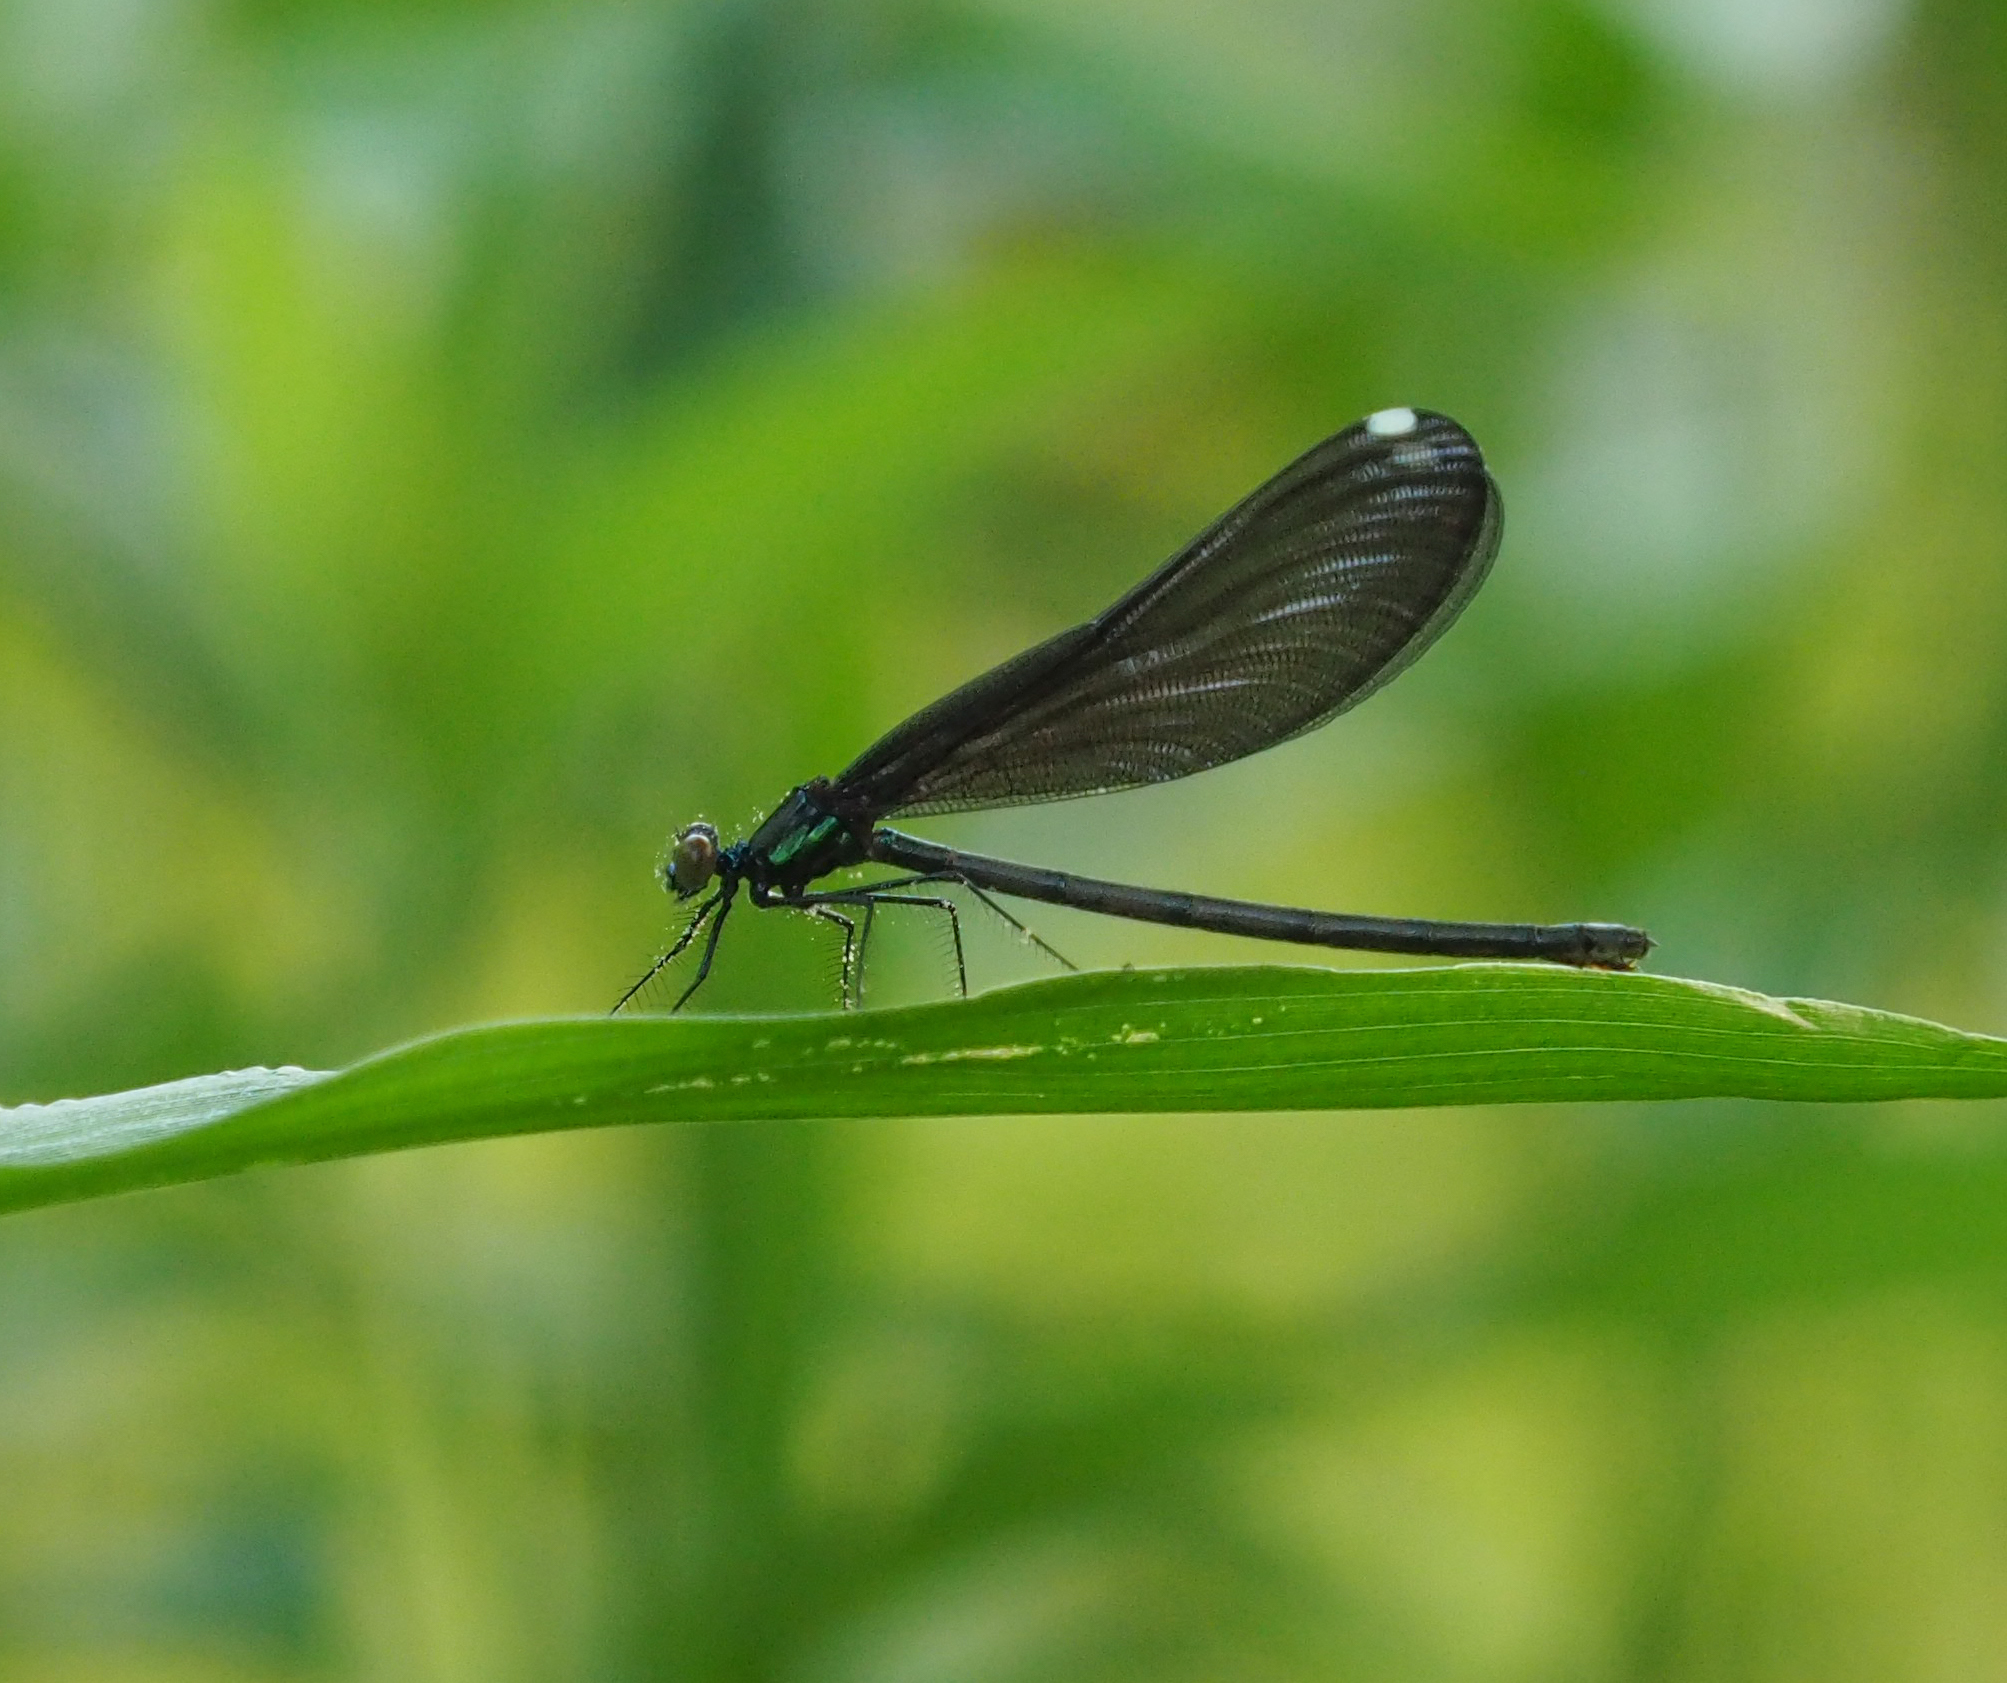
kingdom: Animalia
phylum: Arthropoda
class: Insecta
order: Odonata
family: Calopterygidae
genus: Calopteryx
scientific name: Calopteryx maculata
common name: Ebony jewelwing
